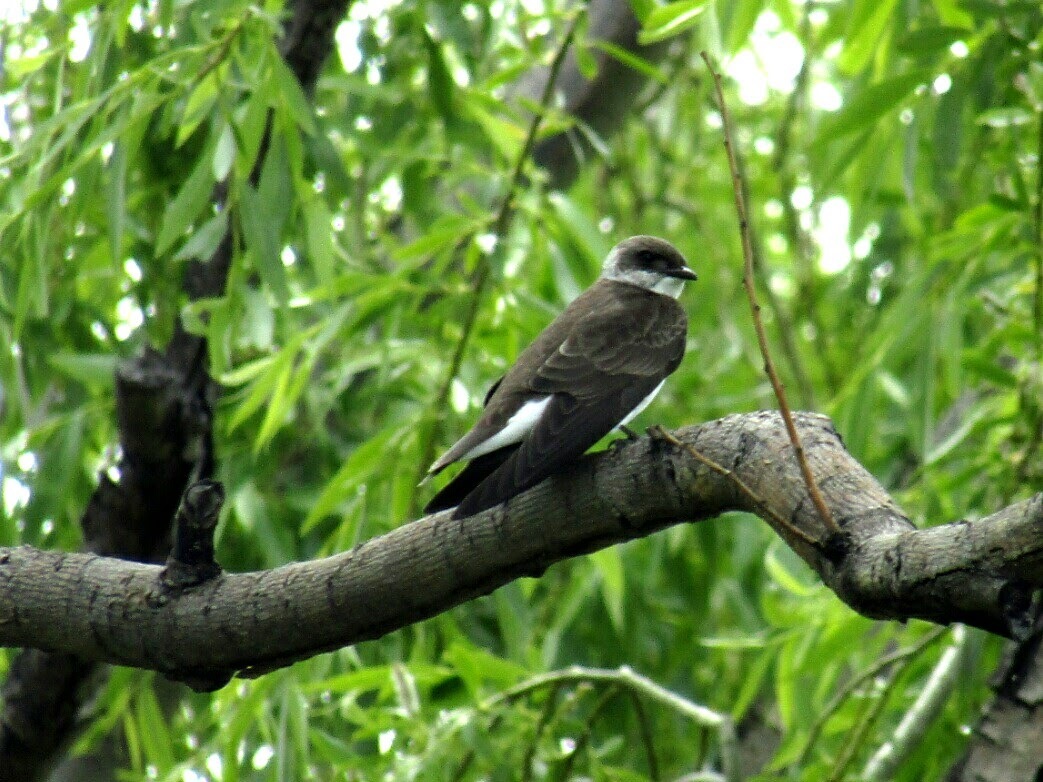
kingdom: Animalia
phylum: Chordata
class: Aves
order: Passeriformes
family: Hirundinidae
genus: Progne
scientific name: Progne tapera
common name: Brown-chested martin
